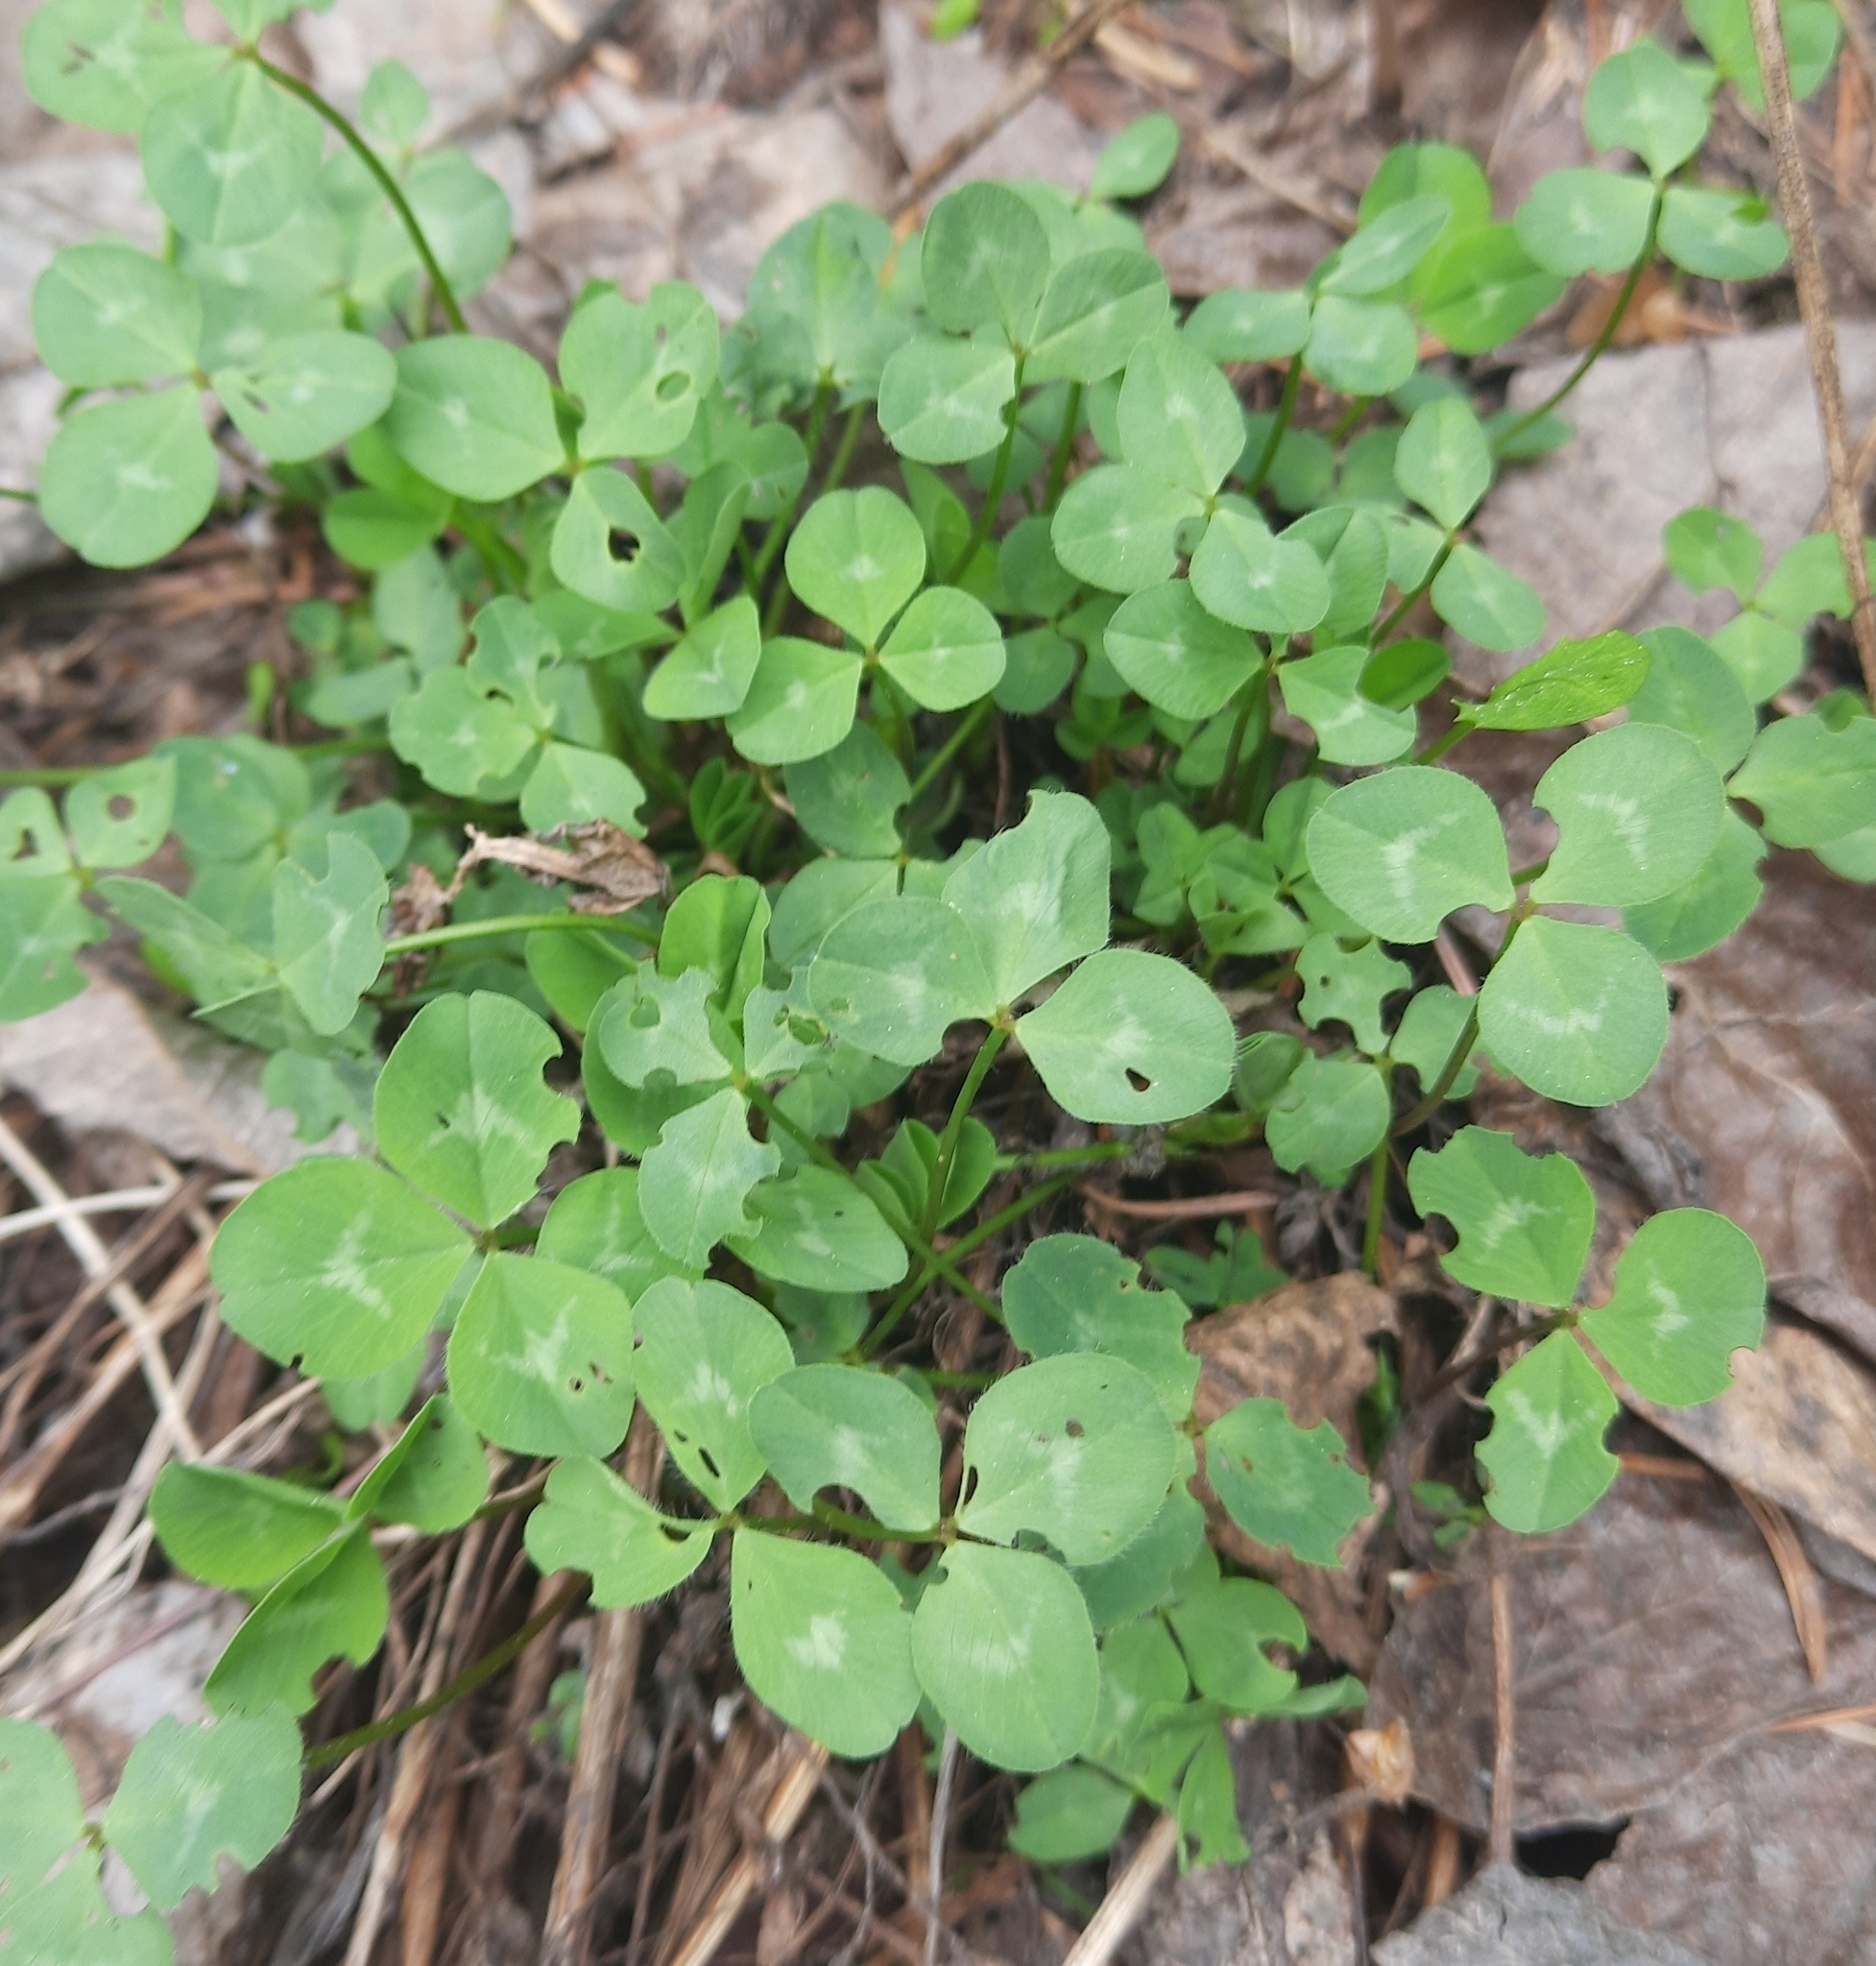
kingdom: Plantae
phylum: Tracheophyta
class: Magnoliopsida
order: Fabales
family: Fabaceae
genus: Trifolium
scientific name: Trifolium repens
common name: White clover
